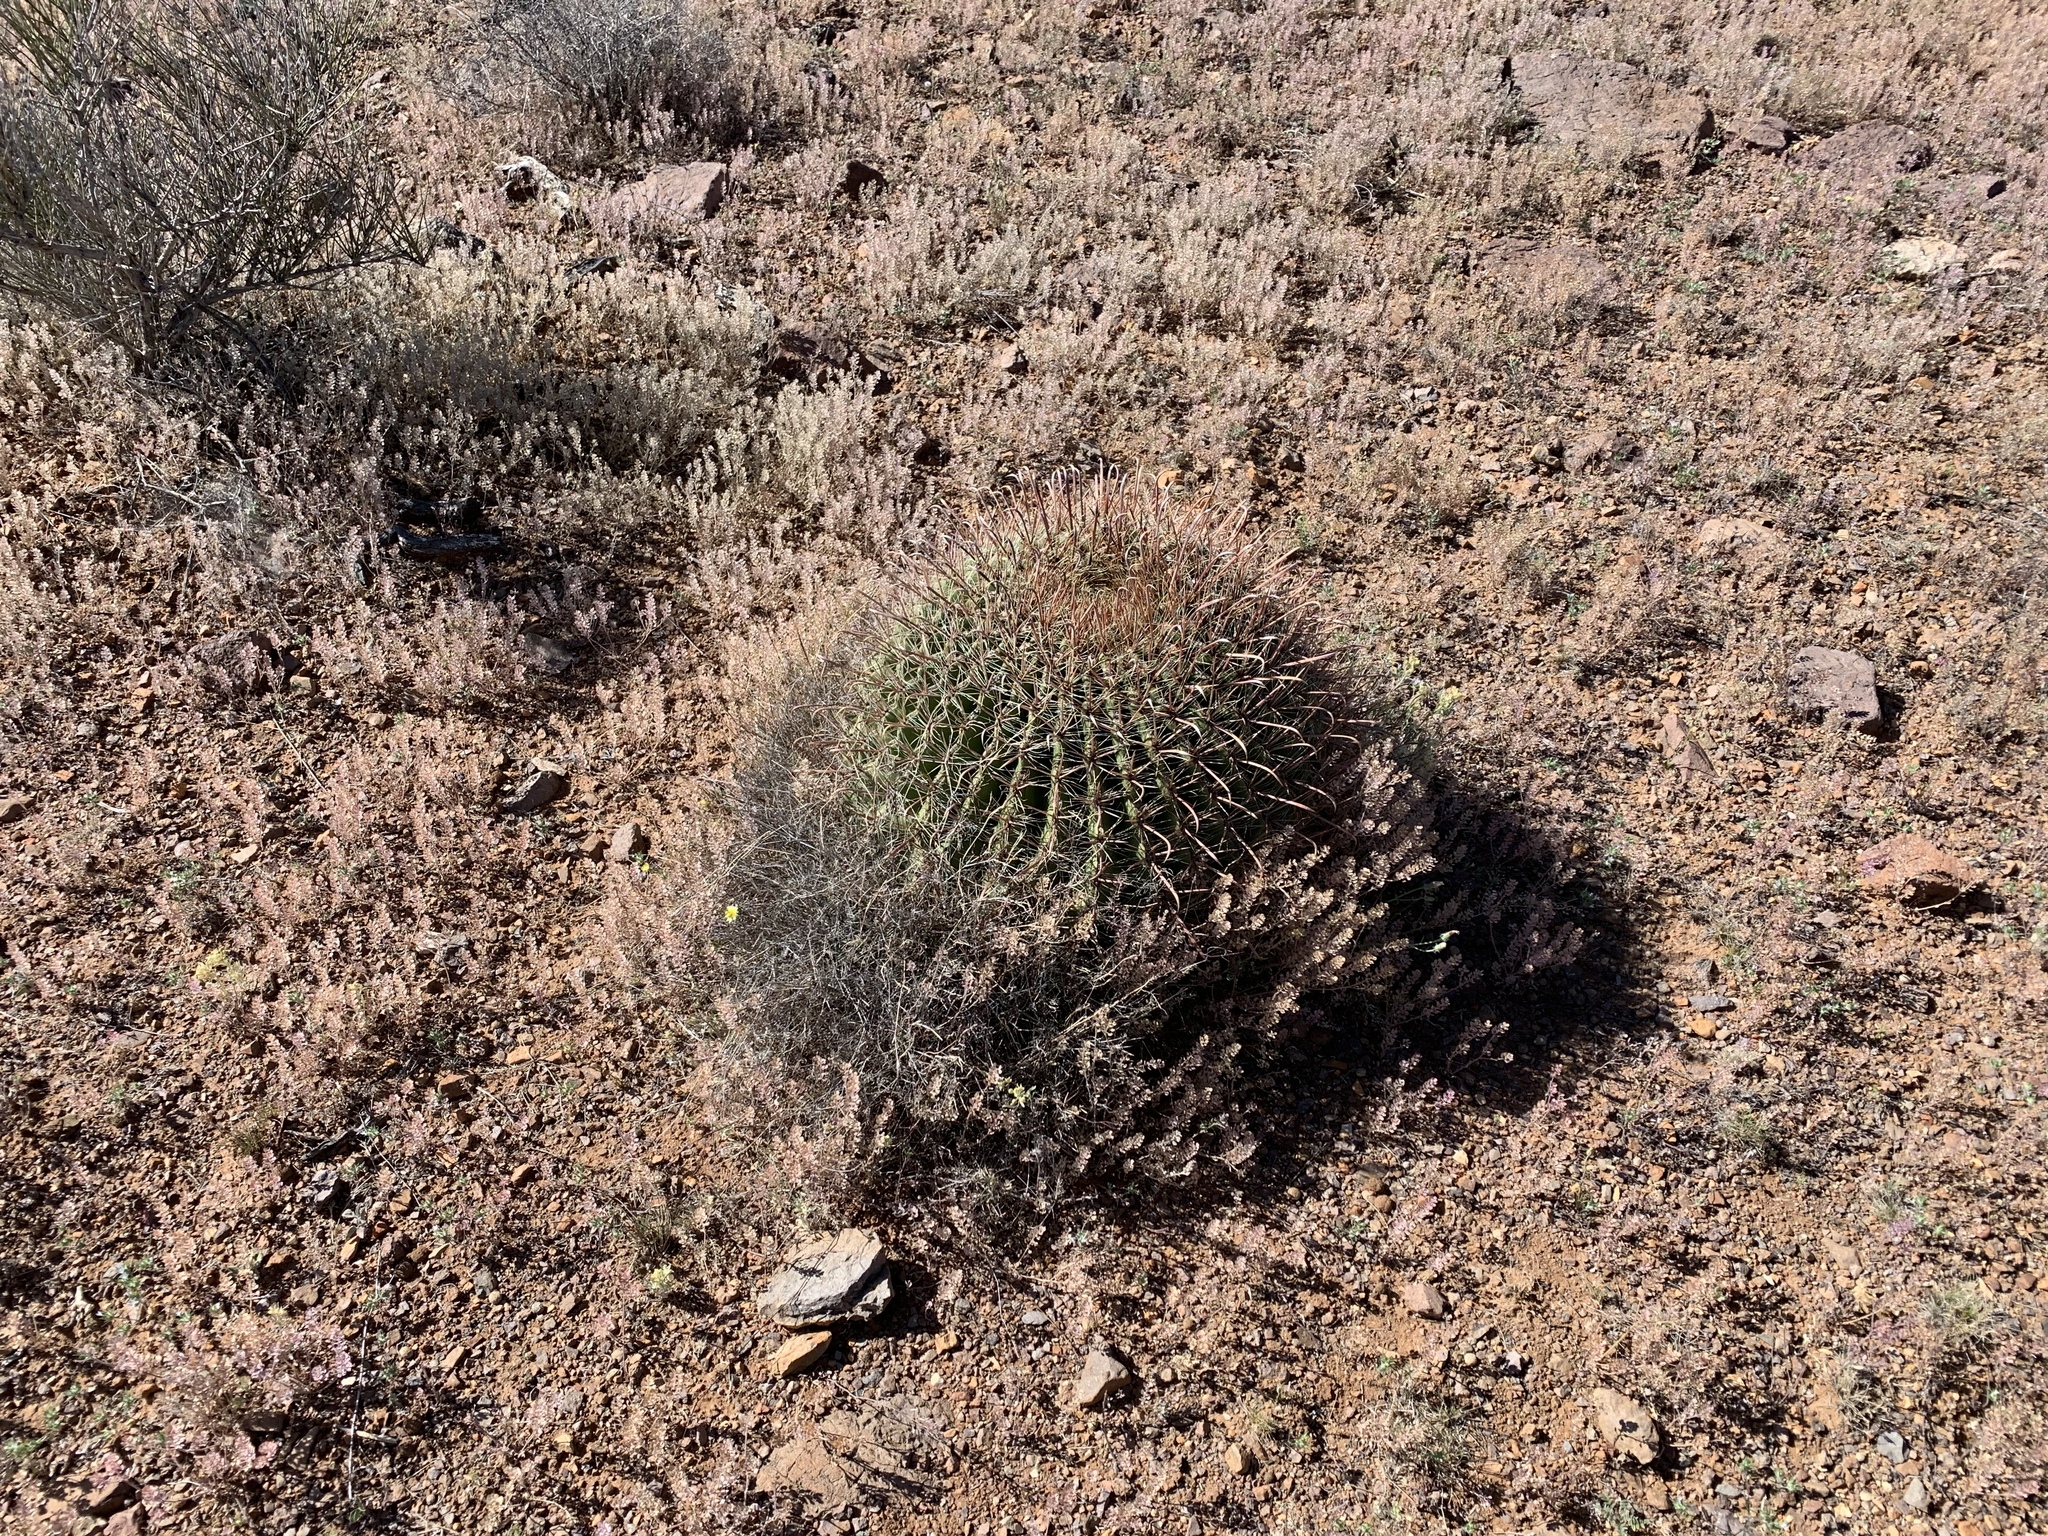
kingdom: Plantae
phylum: Tracheophyta
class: Magnoliopsida
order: Caryophyllales
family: Cactaceae
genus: Ferocactus
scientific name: Ferocactus wislizeni
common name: Candy barrel cactus
